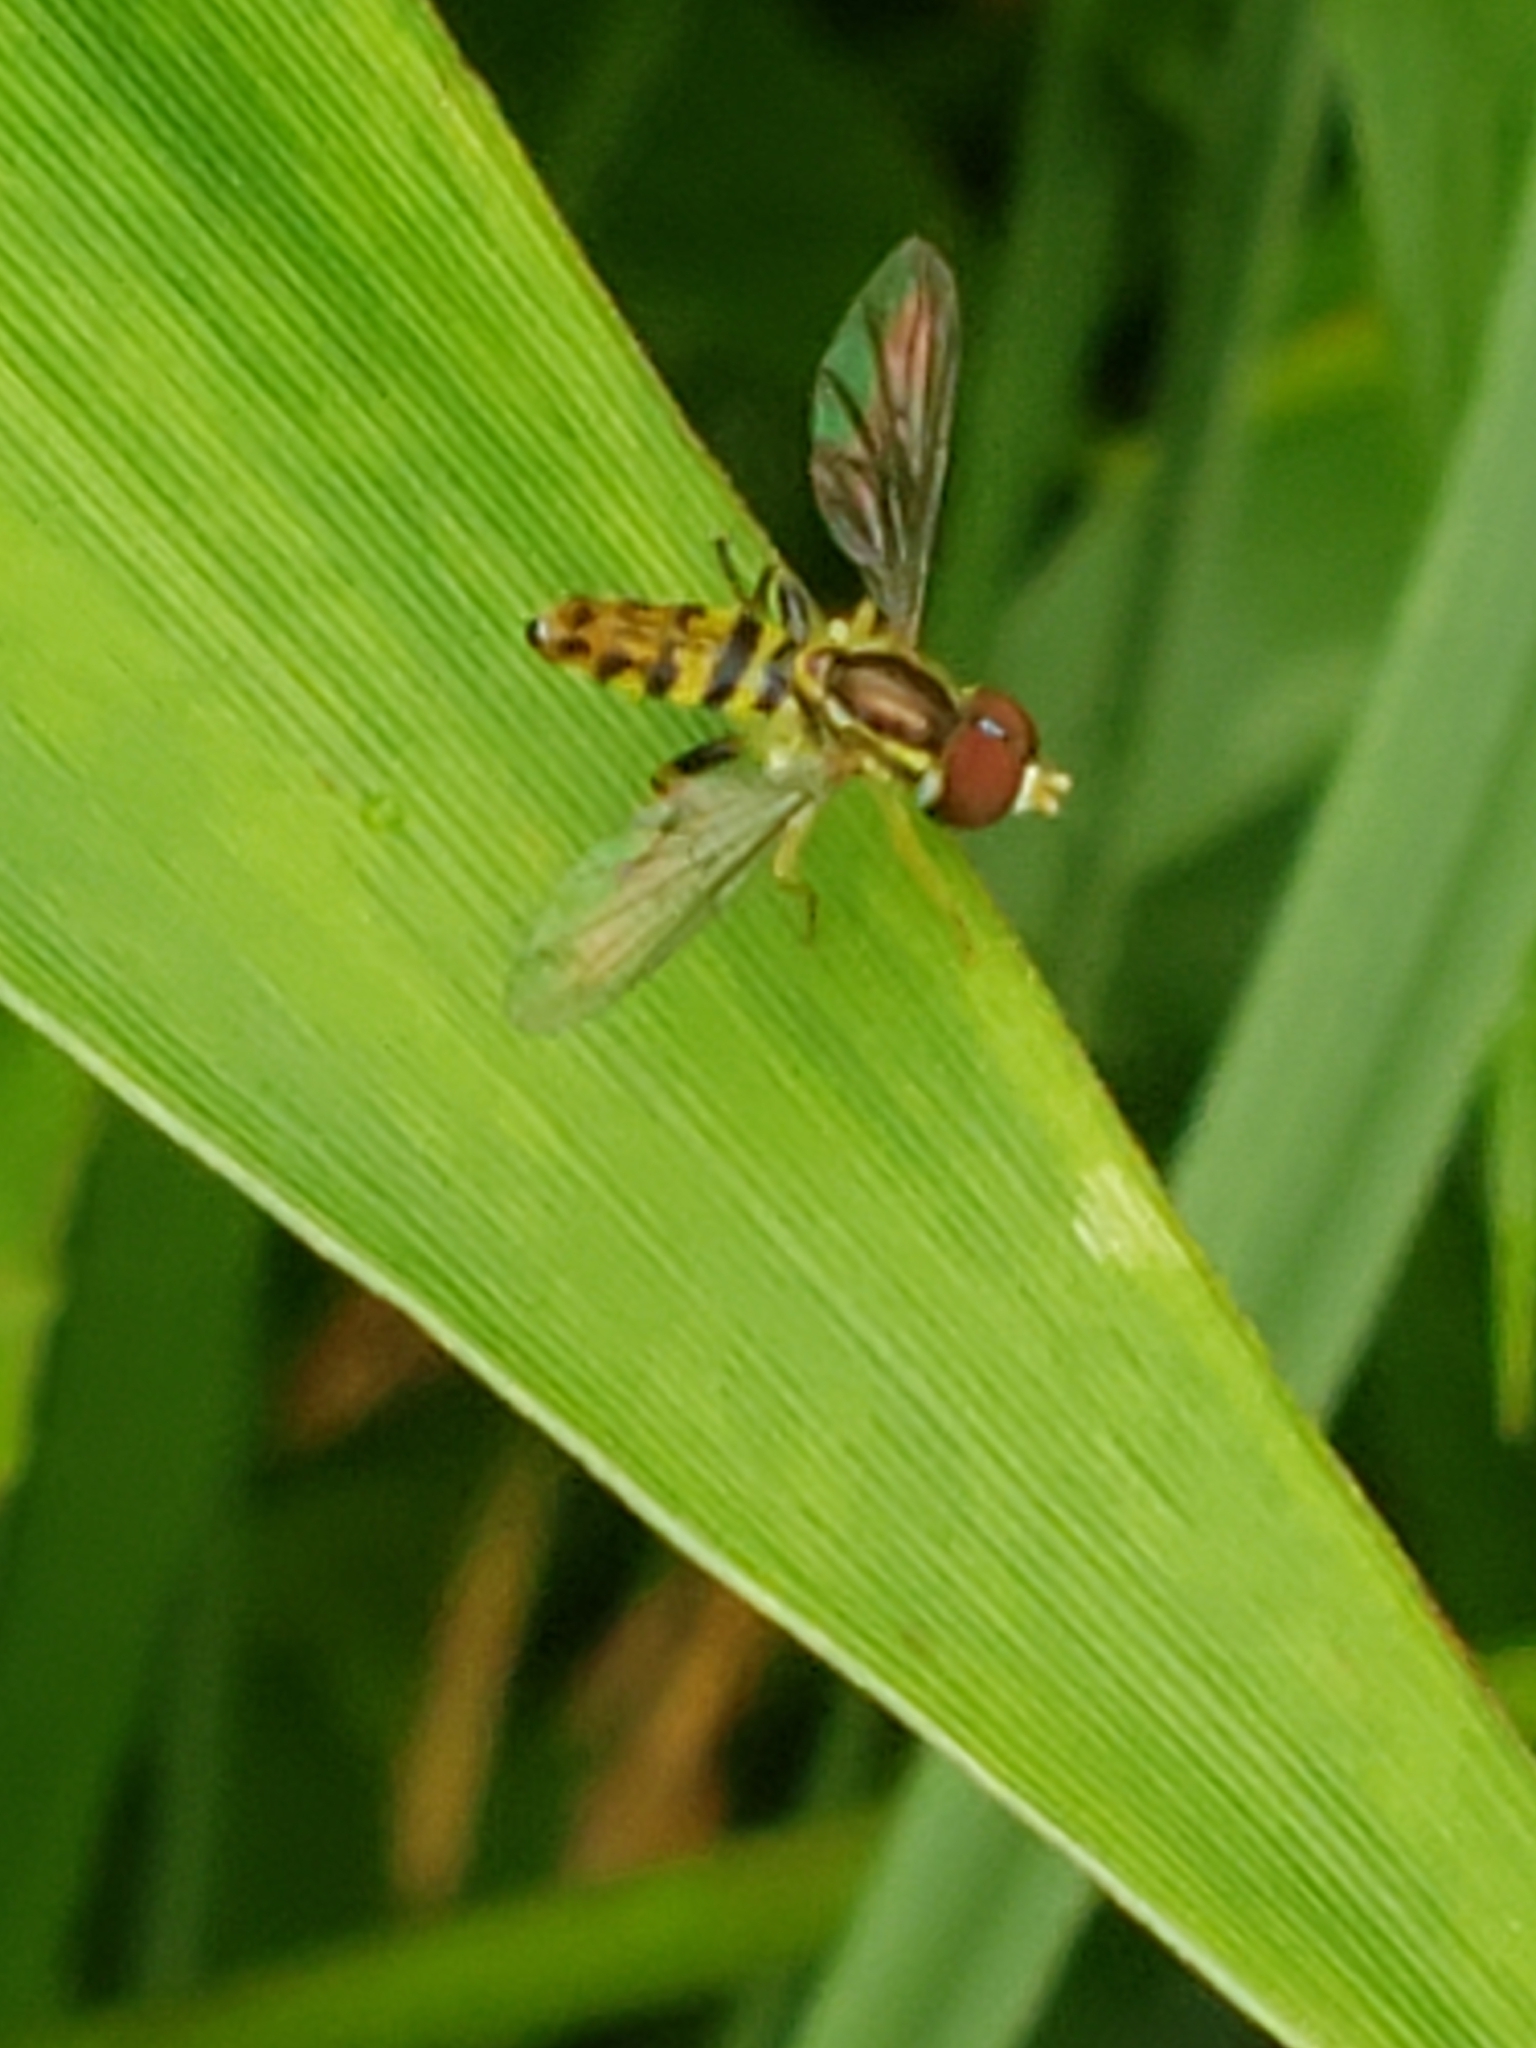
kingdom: Animalia
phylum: Arthropoda
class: Insecta
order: Diptera
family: Syrphidae
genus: Toxomerus
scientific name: Toxomerus geminatus
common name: Eastern calligrapher
